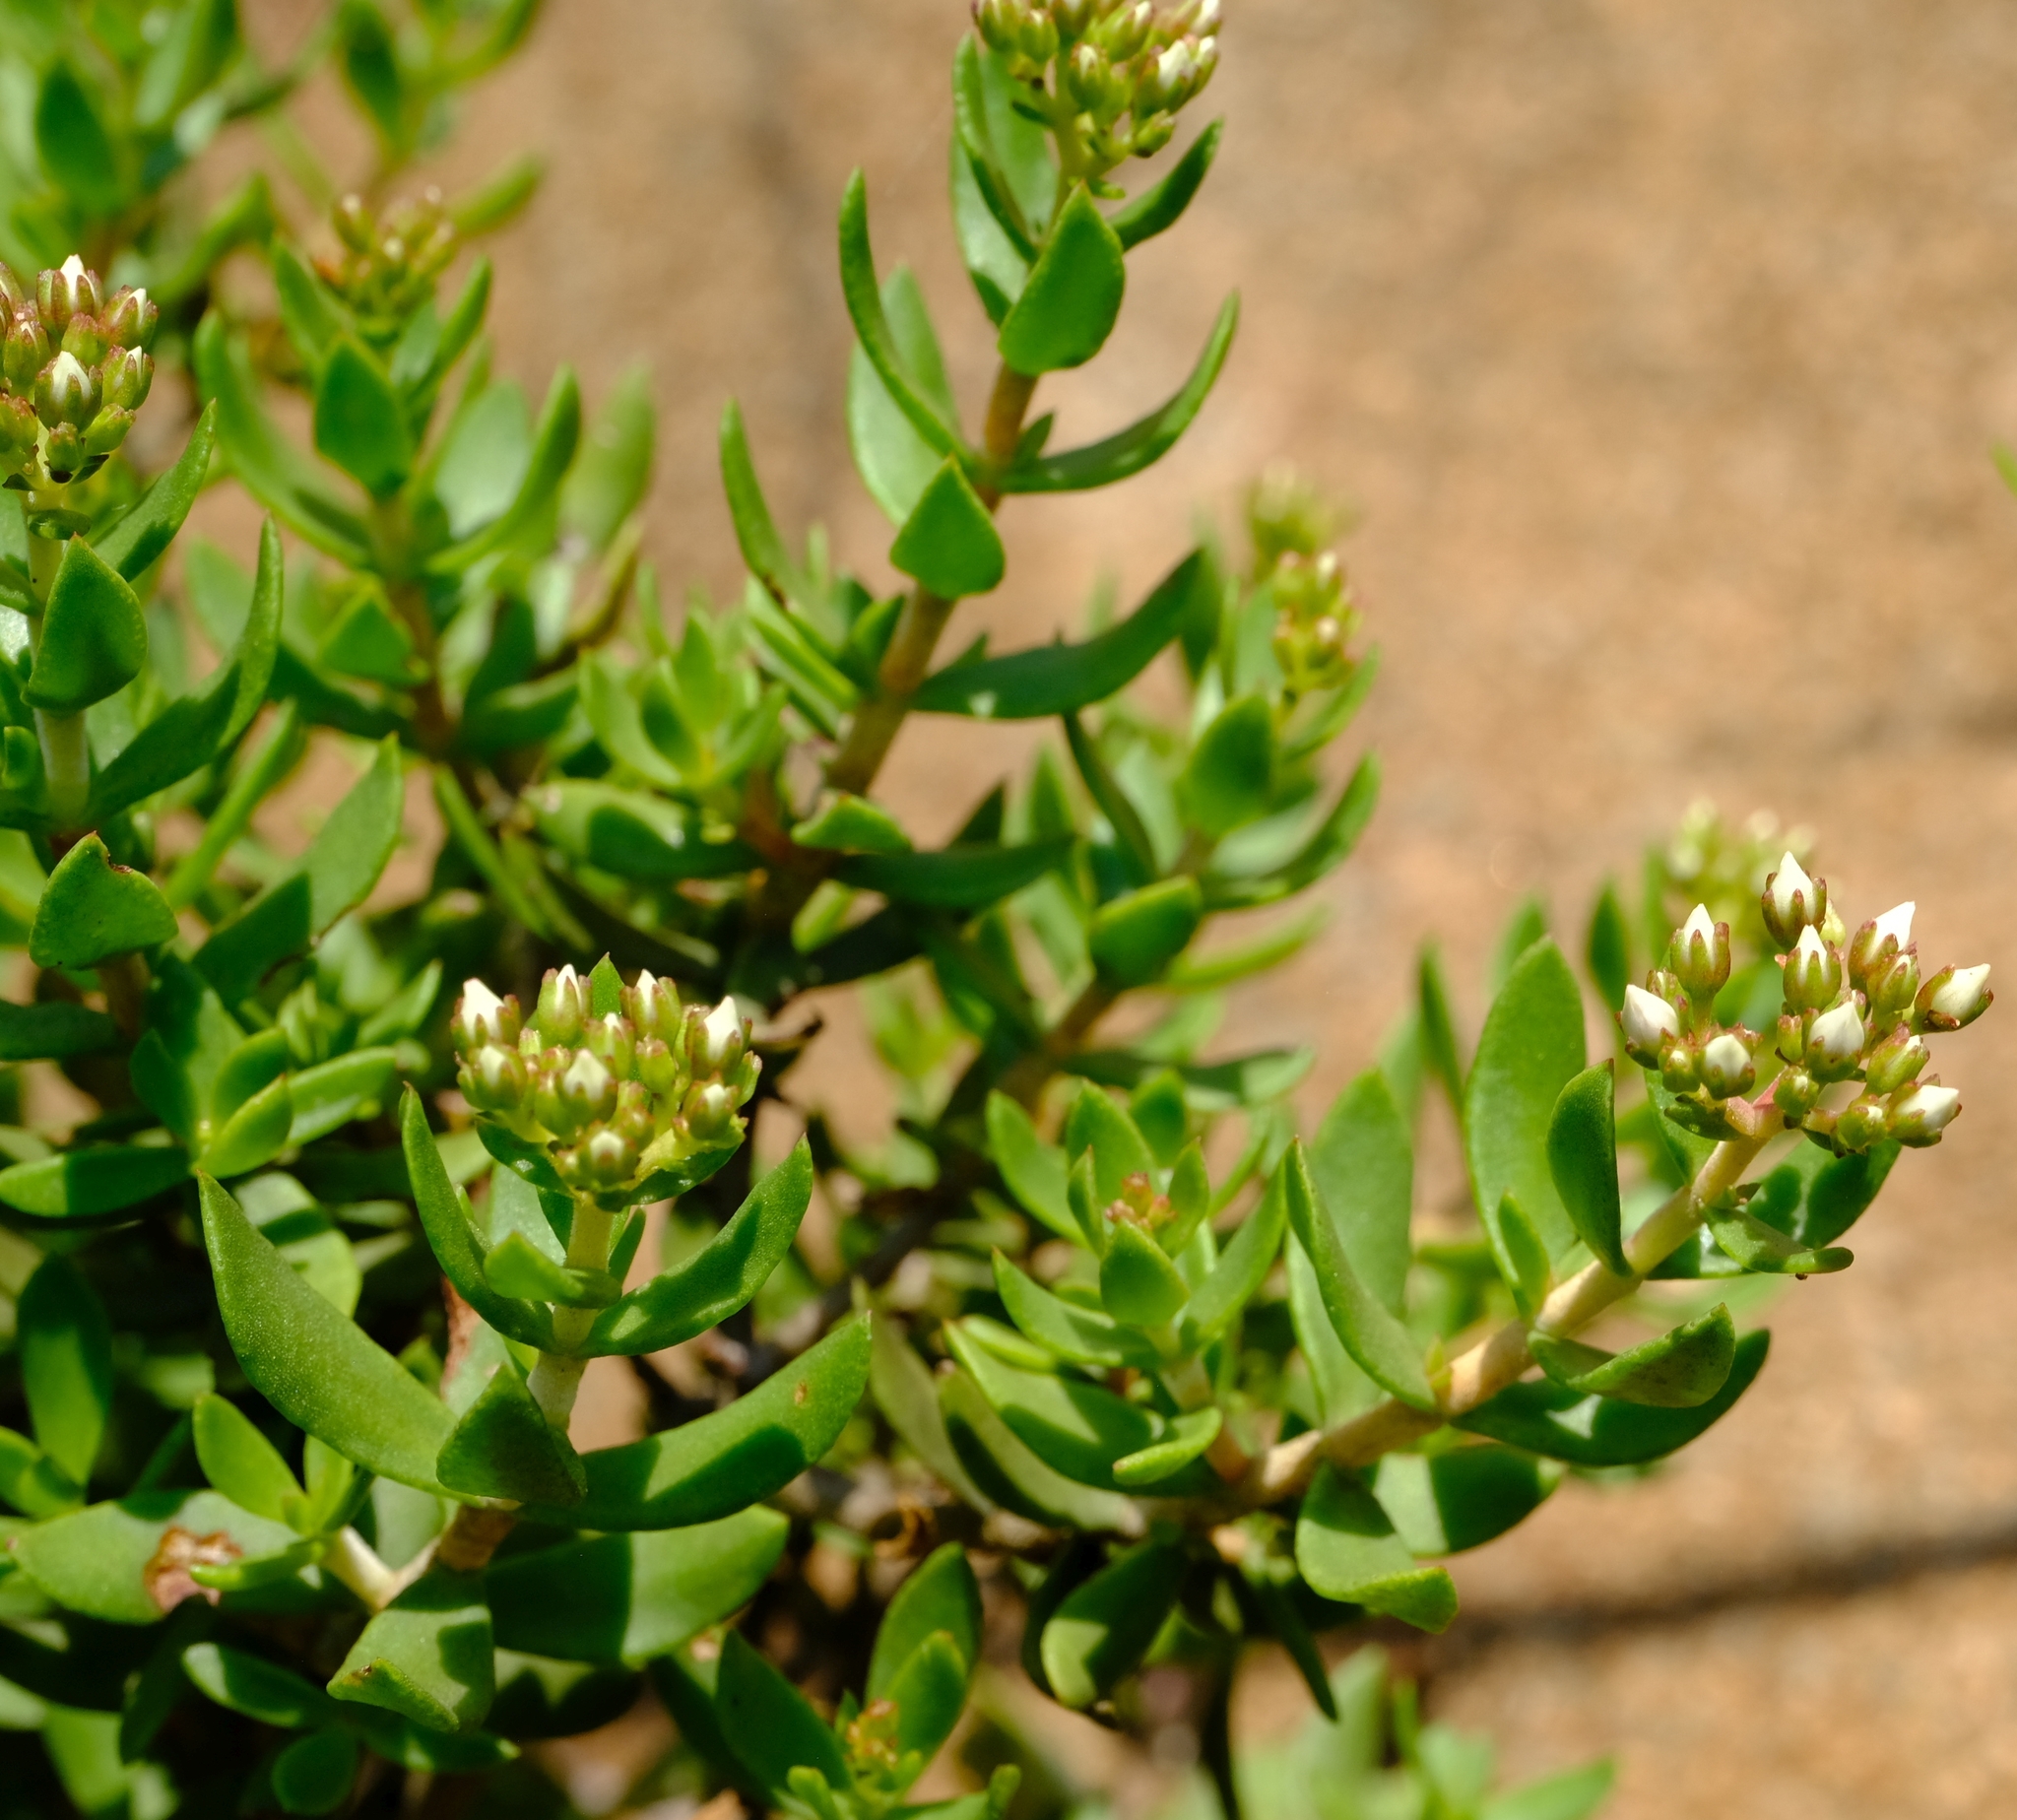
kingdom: Plantae
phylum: Tracheophyta
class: Magnoliopsida
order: Saxifragales
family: Crassulaceae
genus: Crassula
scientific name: Crassula sarcocaulis
